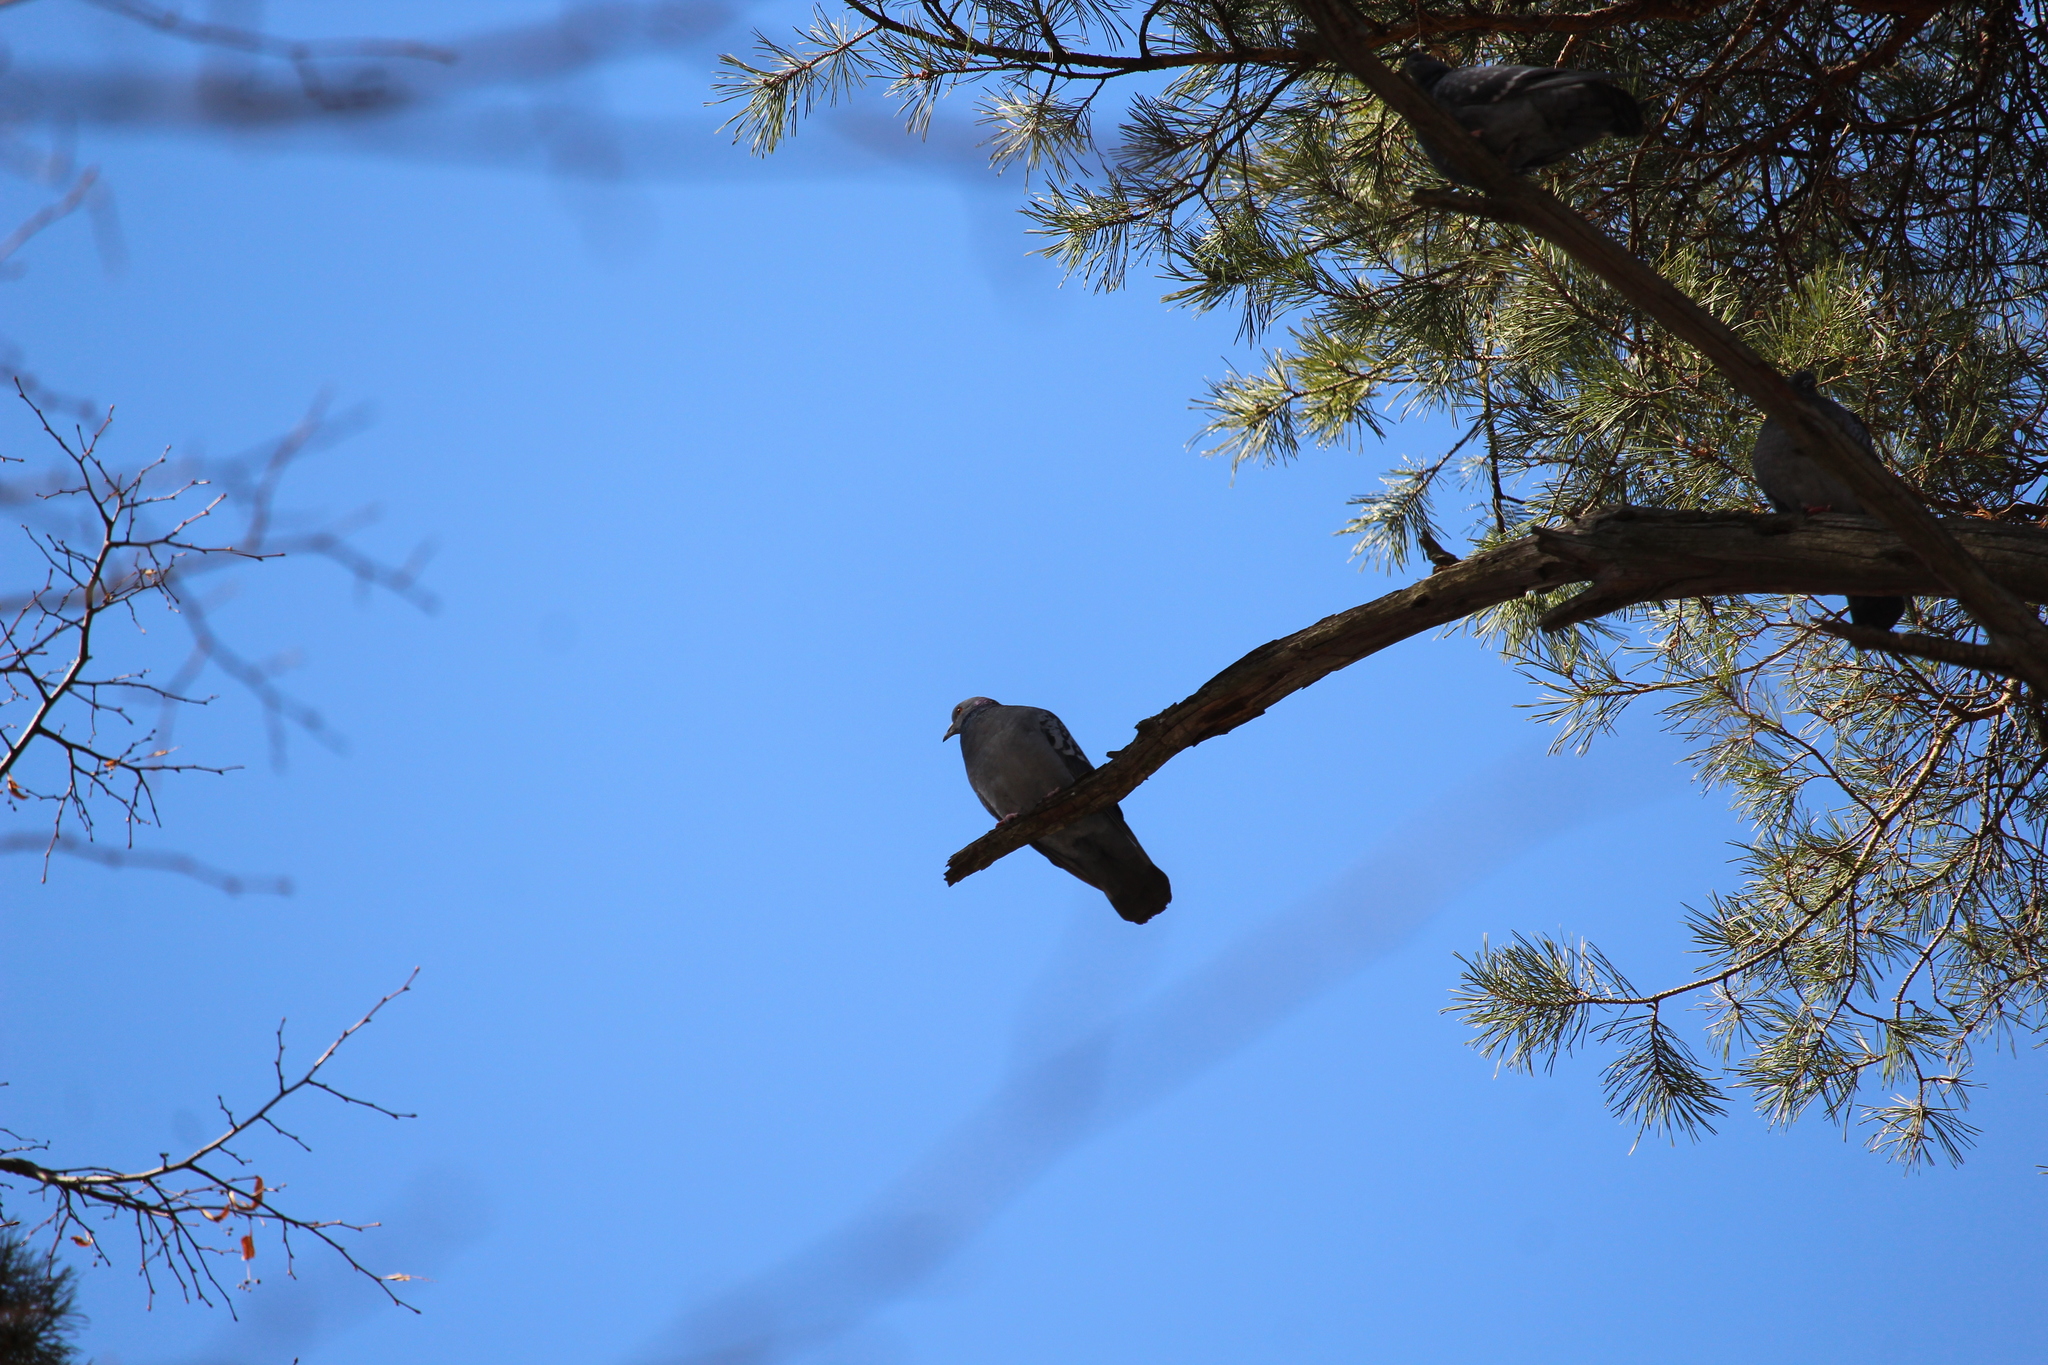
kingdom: Animalia
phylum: Chordata
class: Aves
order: Columbiformes
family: Columbidae
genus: Columba
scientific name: Columba livia
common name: Rock pigeon
